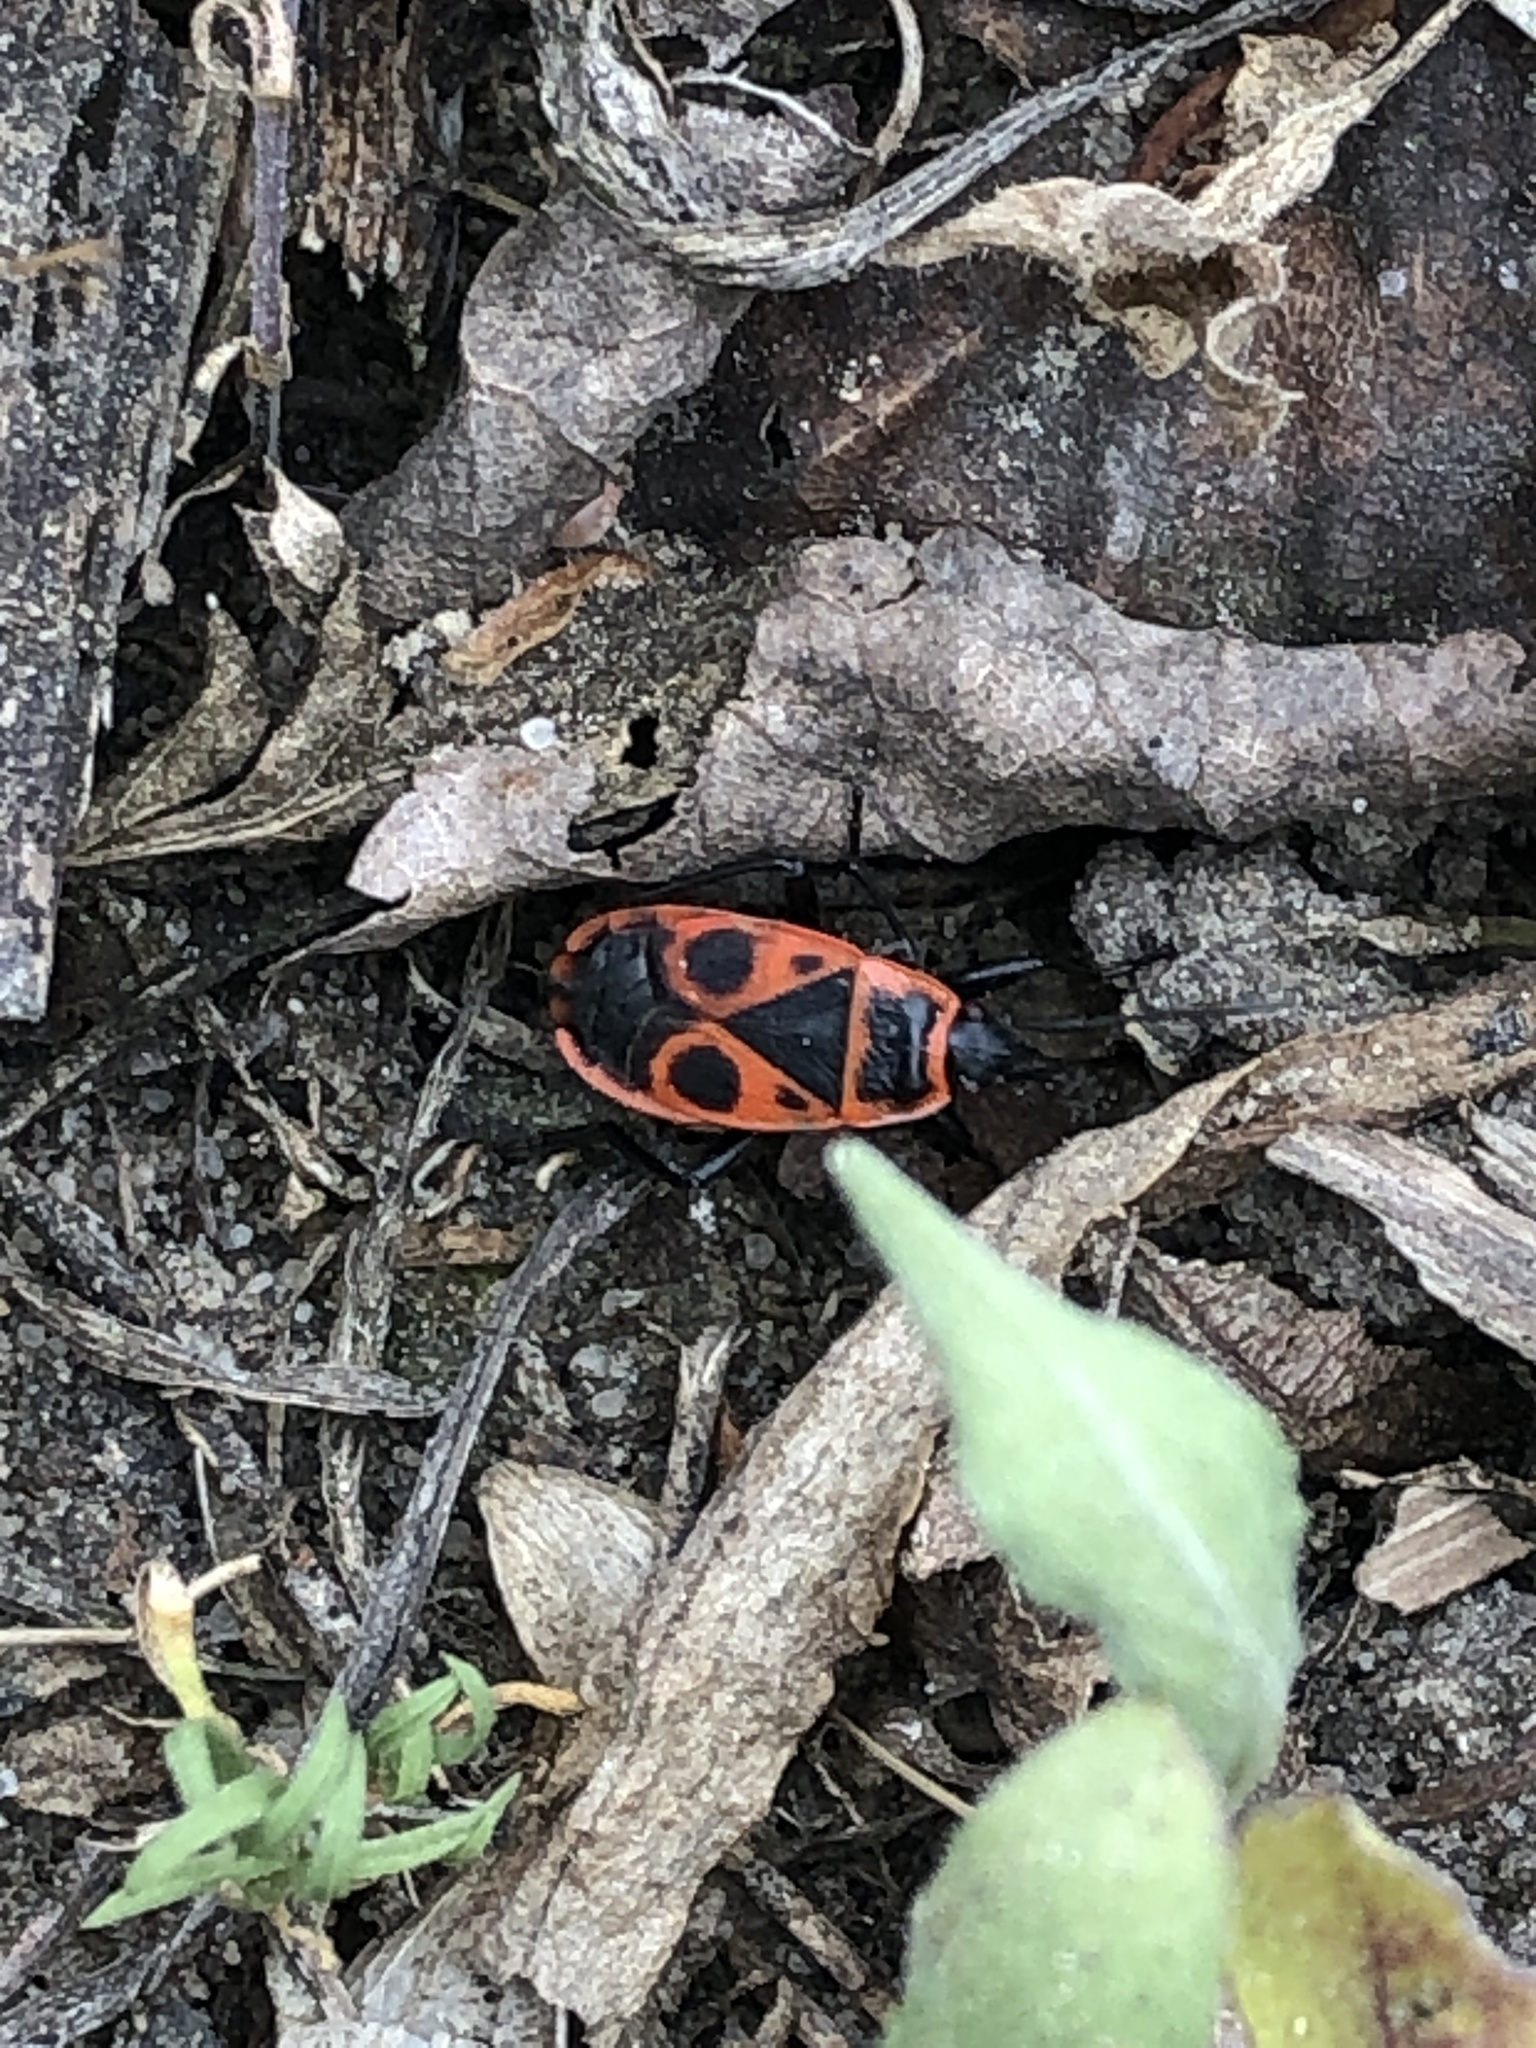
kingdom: Animalia
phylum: Arthropoda
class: Insecta
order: Hemiptera
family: Pyrrhocoridae
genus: Pyrrhocoris
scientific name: Pyrrhocoris apterus
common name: Firebug
